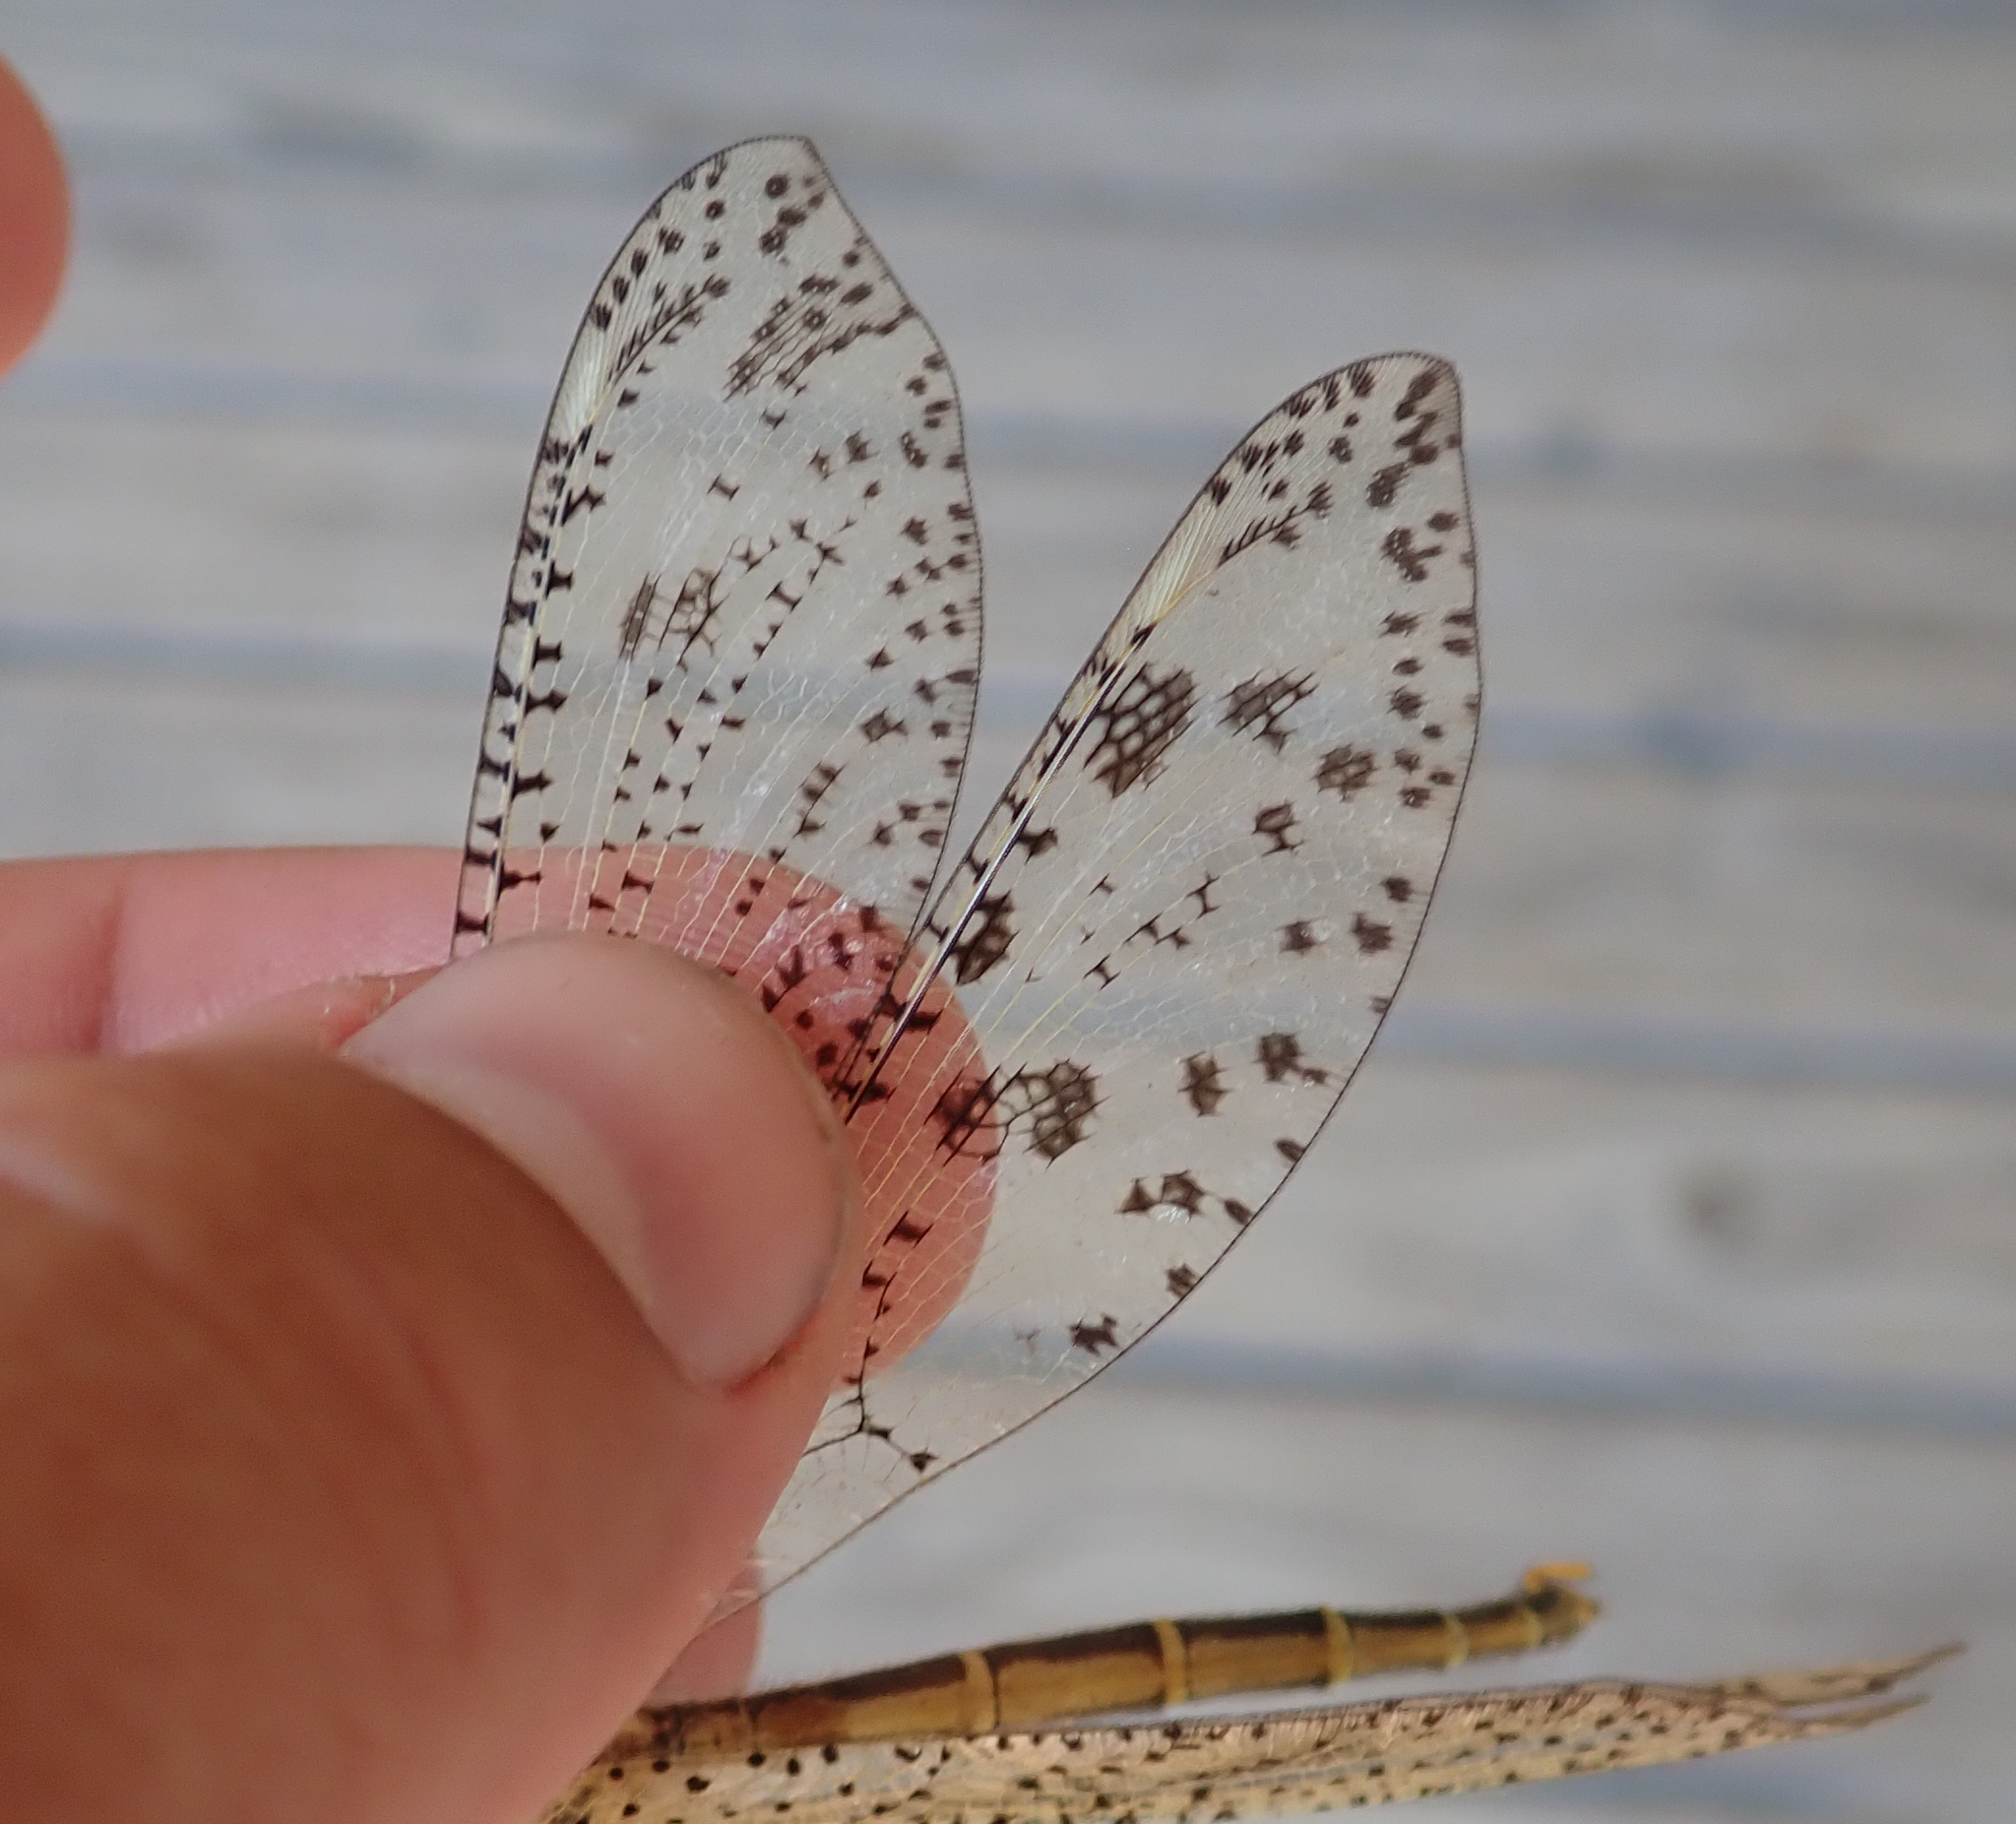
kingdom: Animalia
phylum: Arthropoda
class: Insecta
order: Neuroptera
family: Myrmeleontidae
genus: Palpares
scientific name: Palpares sobrinus
